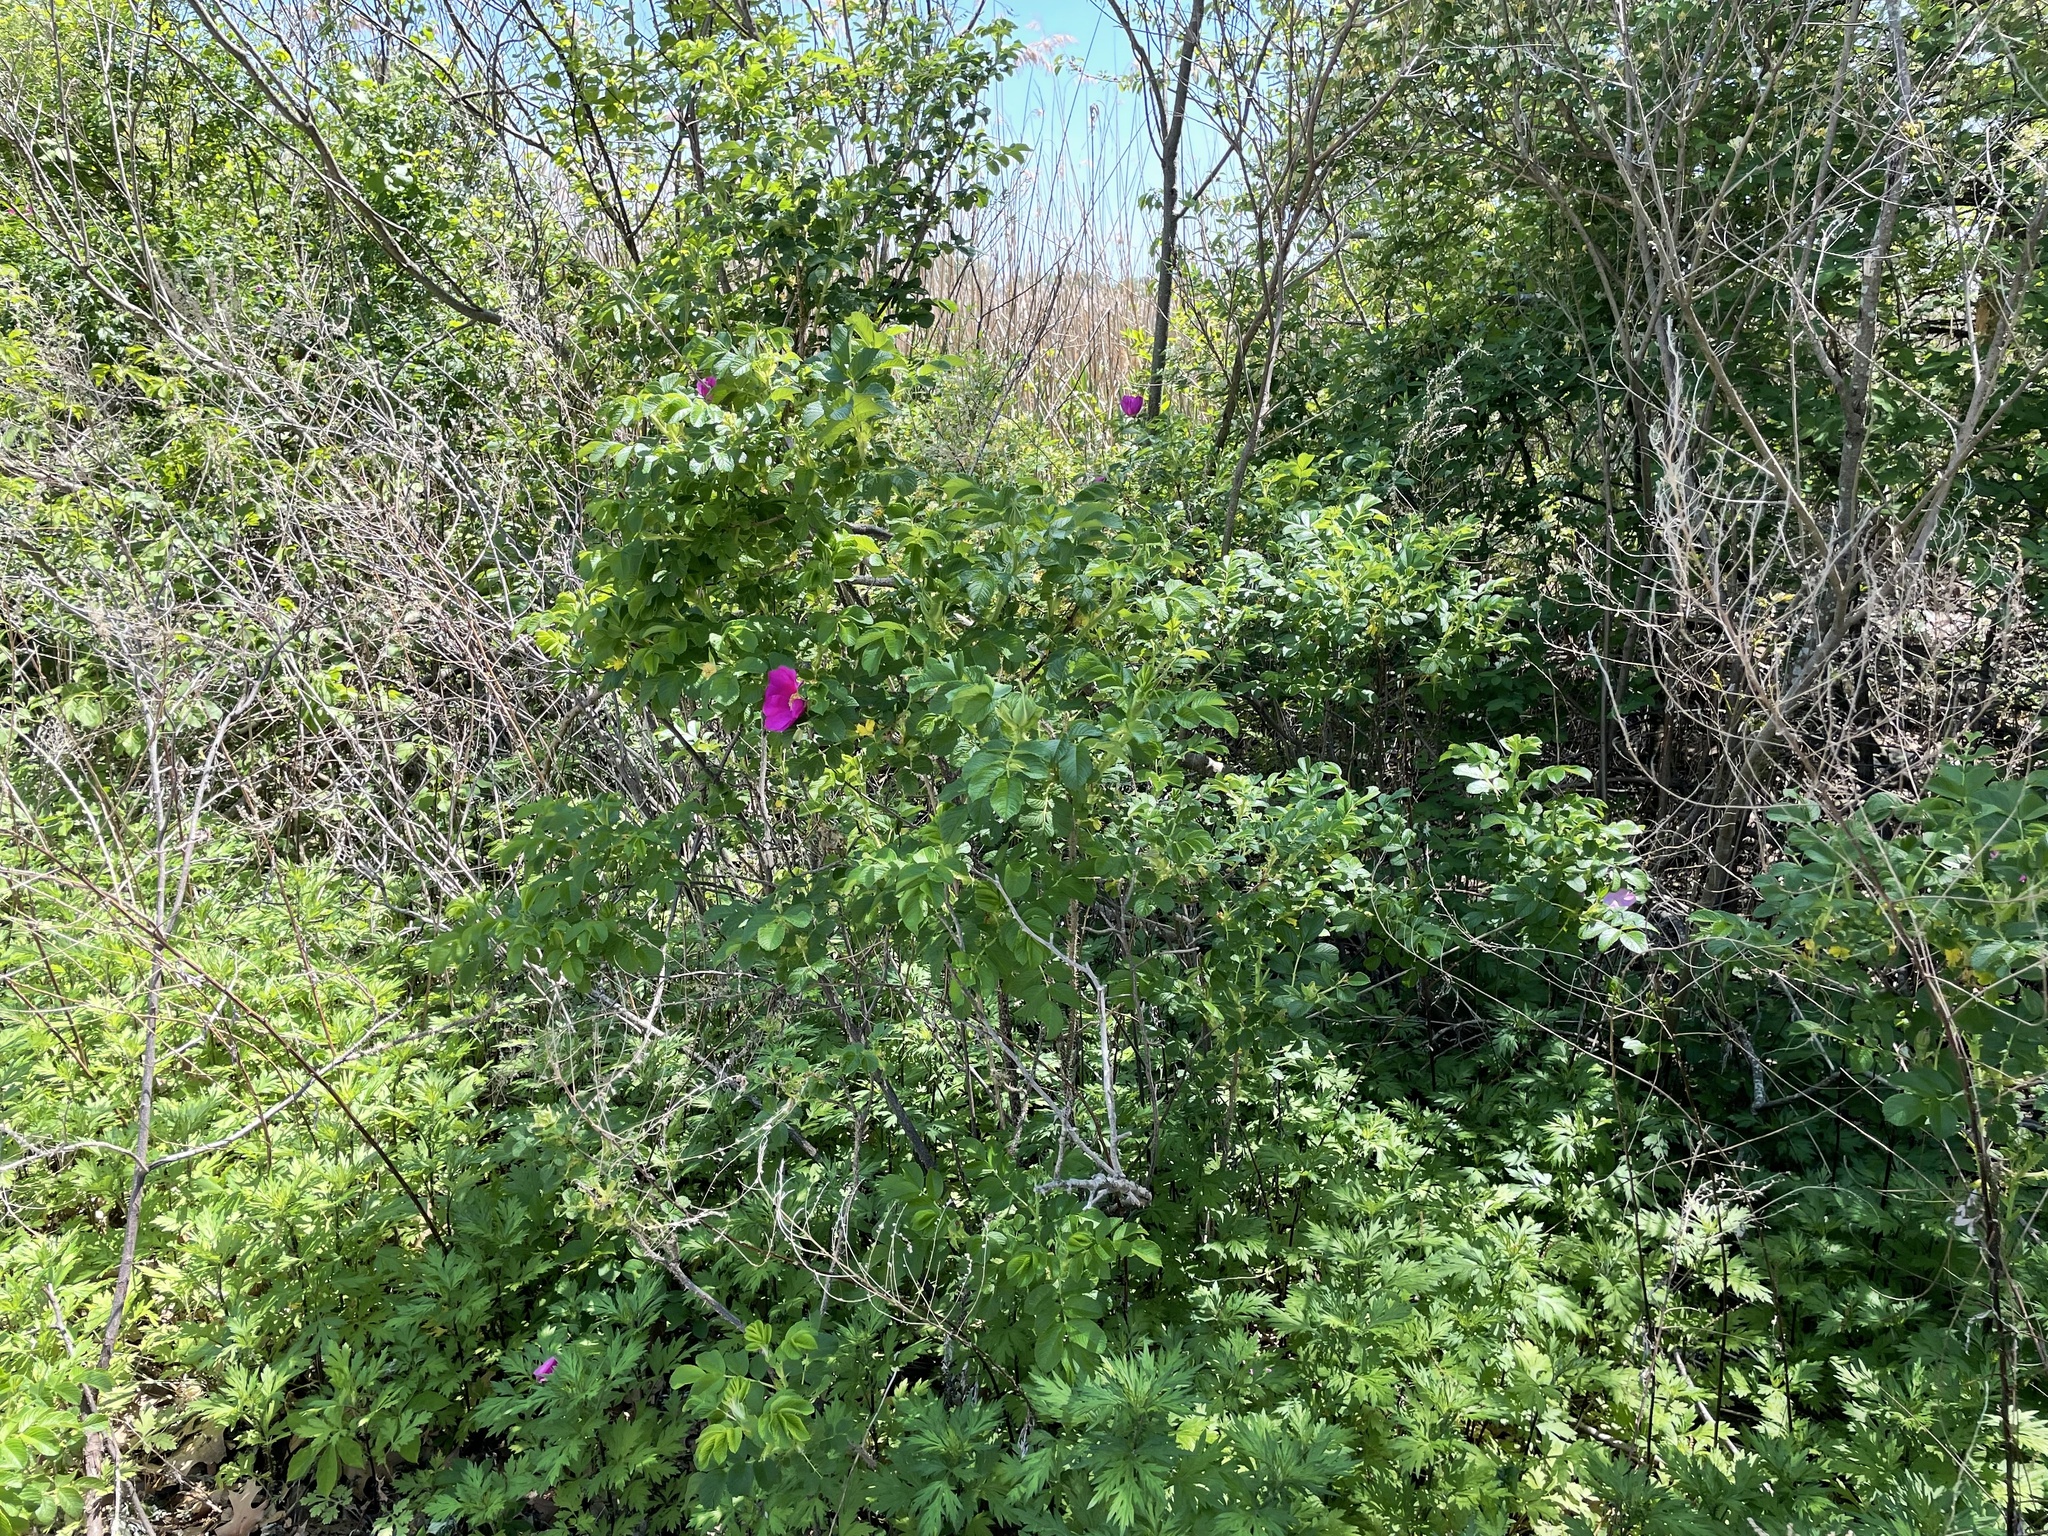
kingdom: Plantae
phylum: Tracheophyta
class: Magnoliopsida
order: Rosales
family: Rosaceae
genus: Rosa
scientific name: Rosa rugosa
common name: Japanese rose
